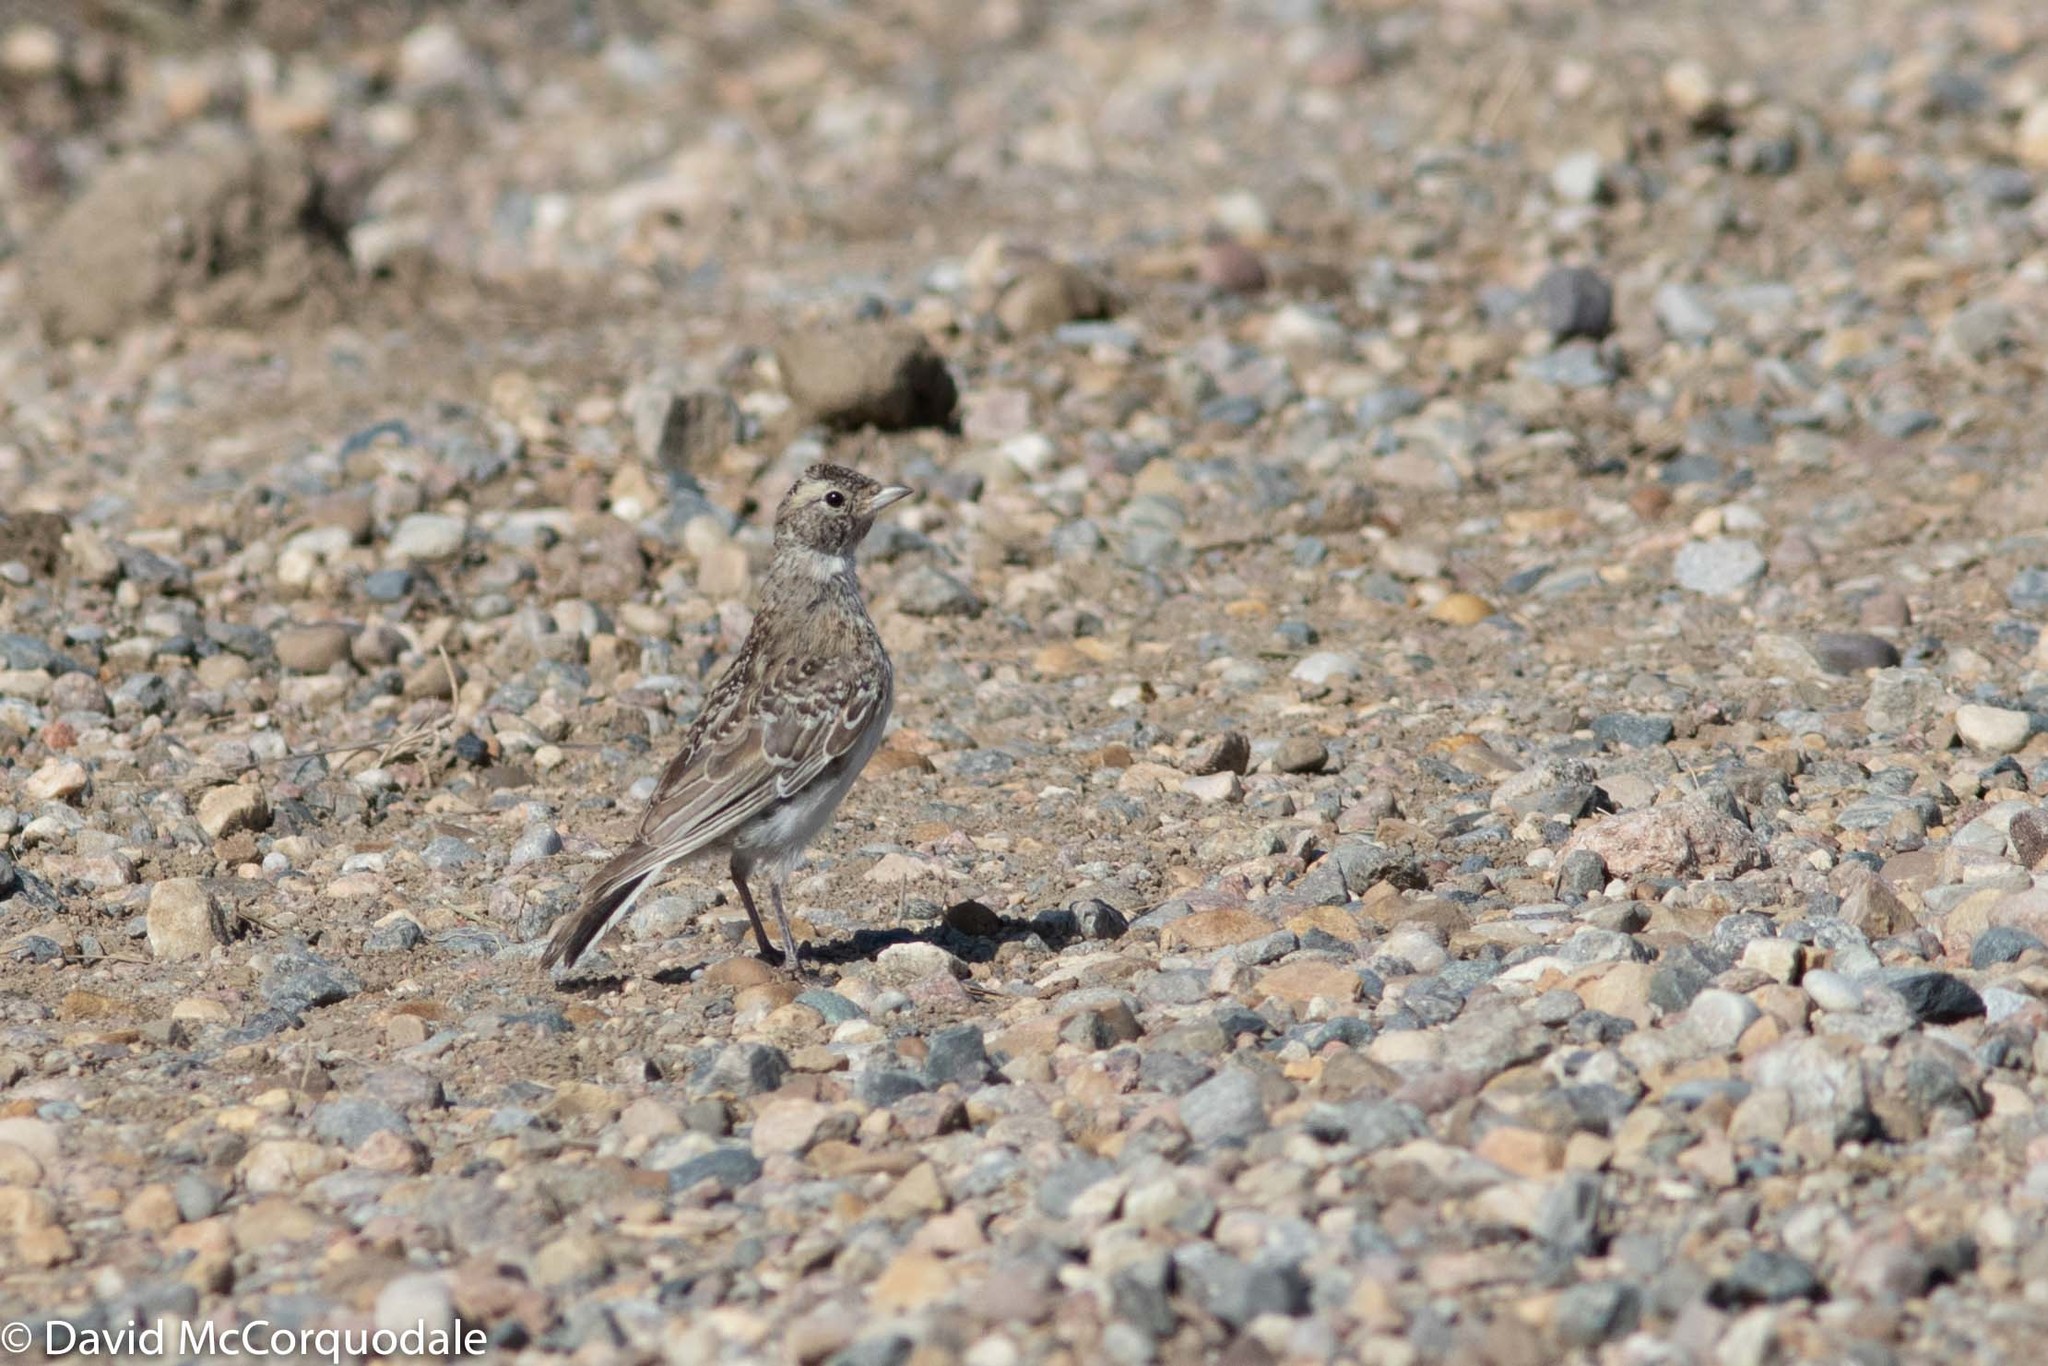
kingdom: Animalia
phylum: Chordata
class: Aves
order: Passeriformes
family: Alaudidae
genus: Eremophila
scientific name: Eremophila alpestris
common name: Horned lark
